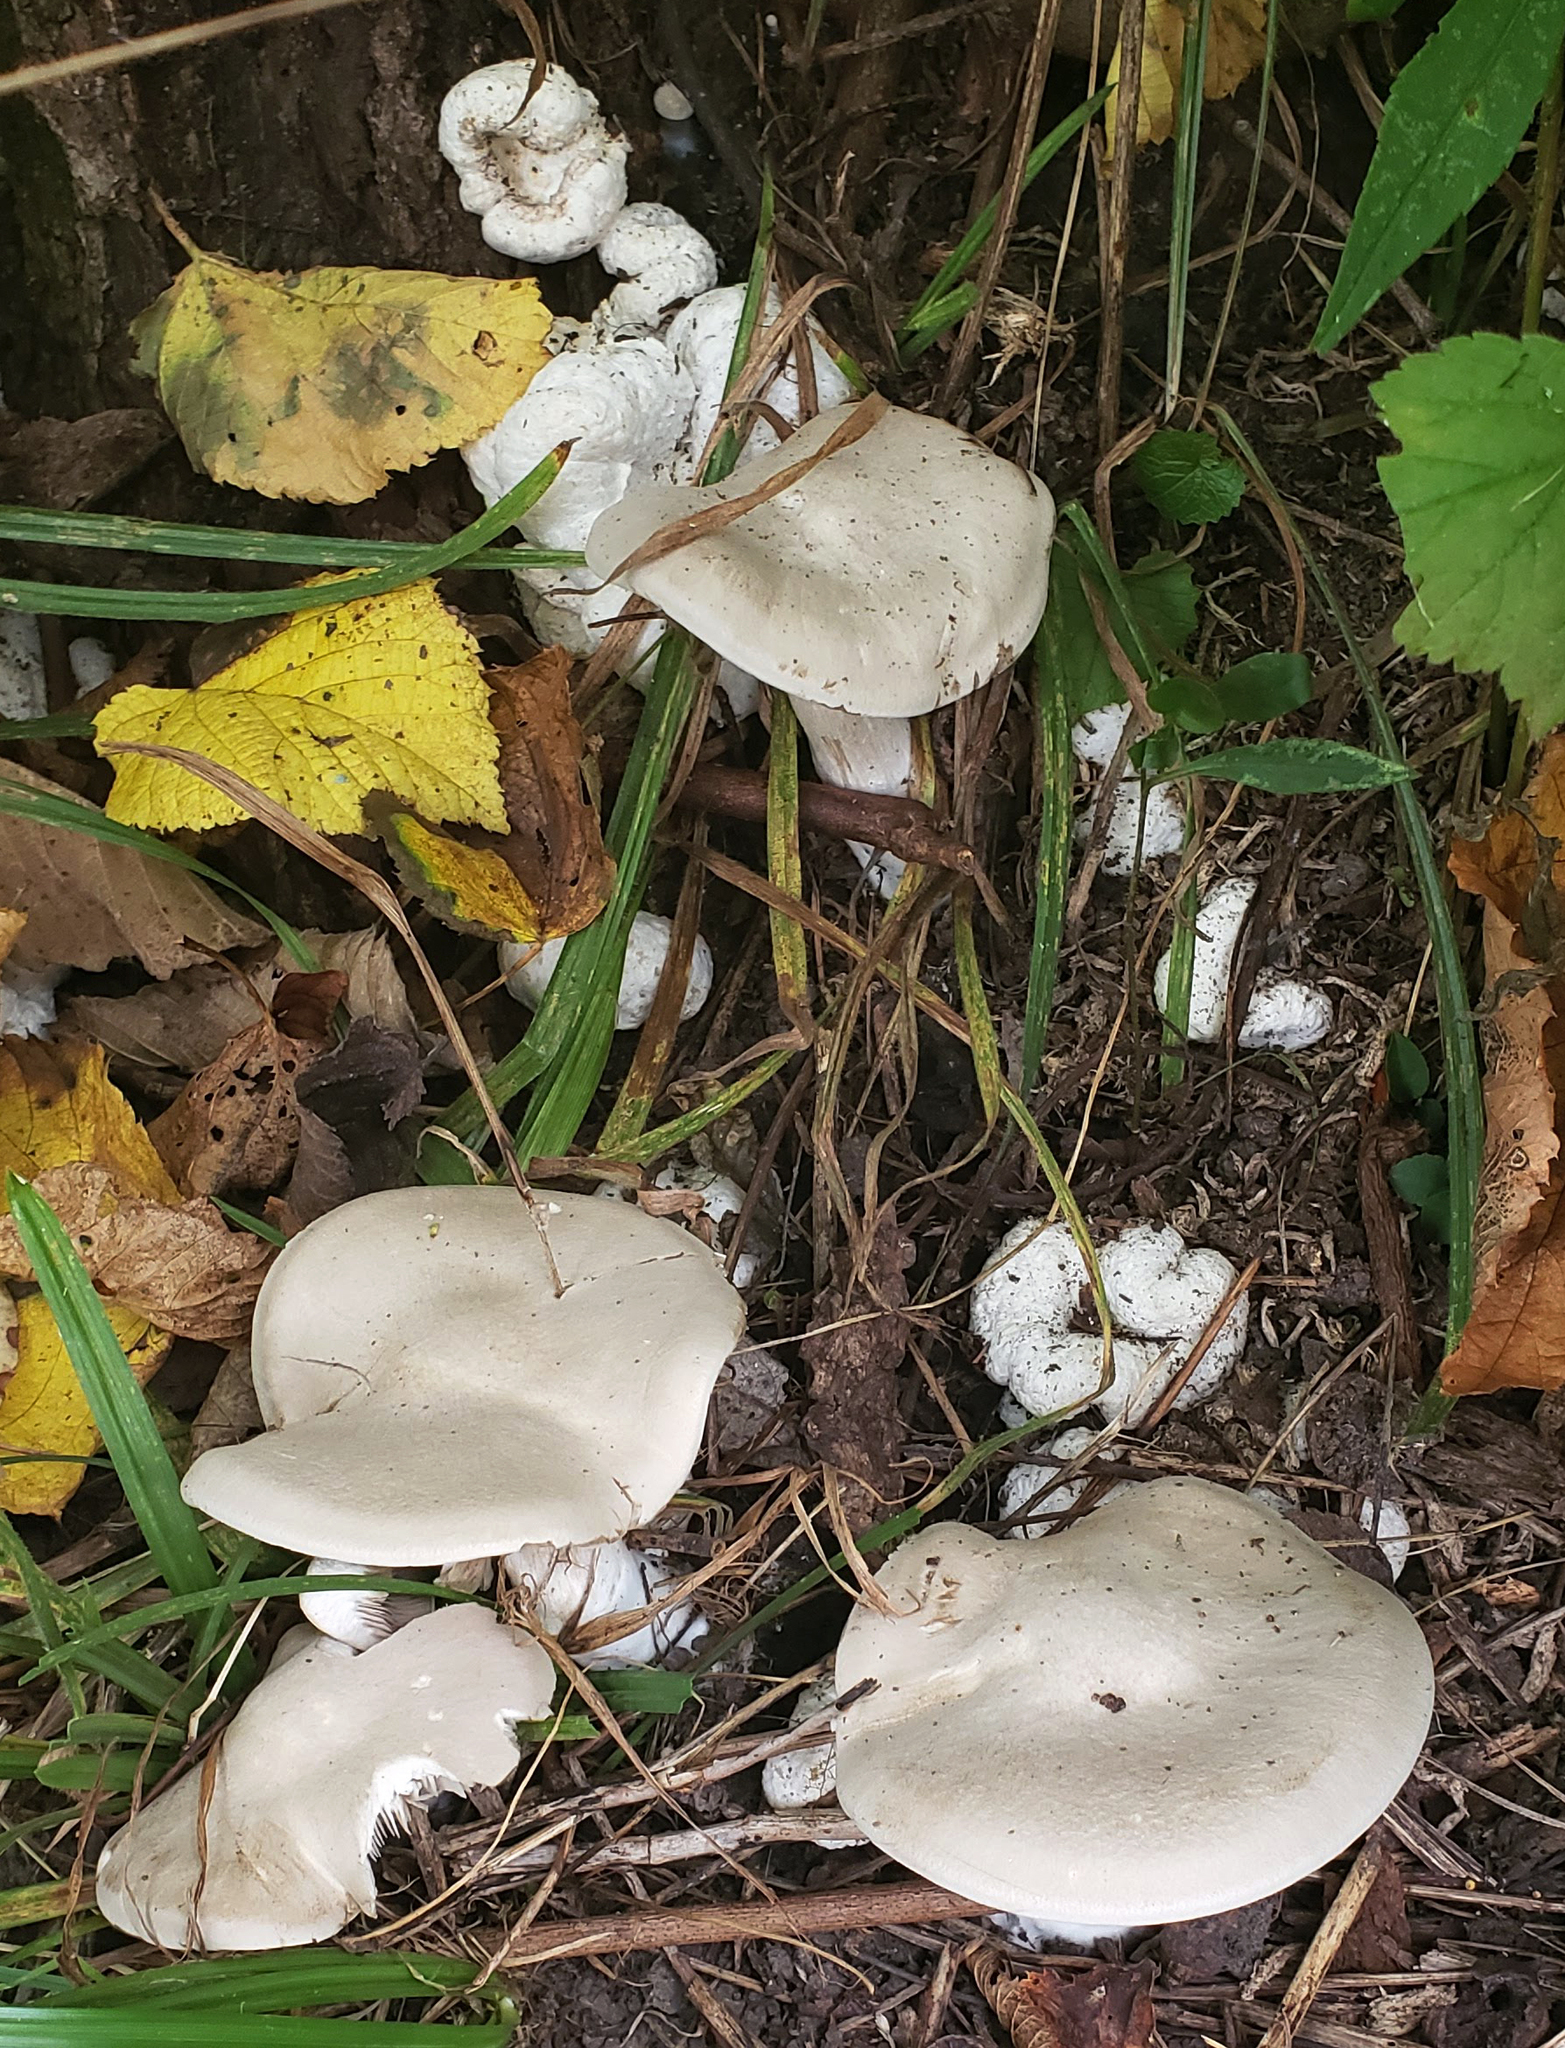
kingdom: Fungi
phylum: Basidiomycota
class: Agaricomycetes
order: Agaricales
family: Entolomataceae
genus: Entoloma
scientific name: Entoloma abortivum
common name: Aborted entoloma
